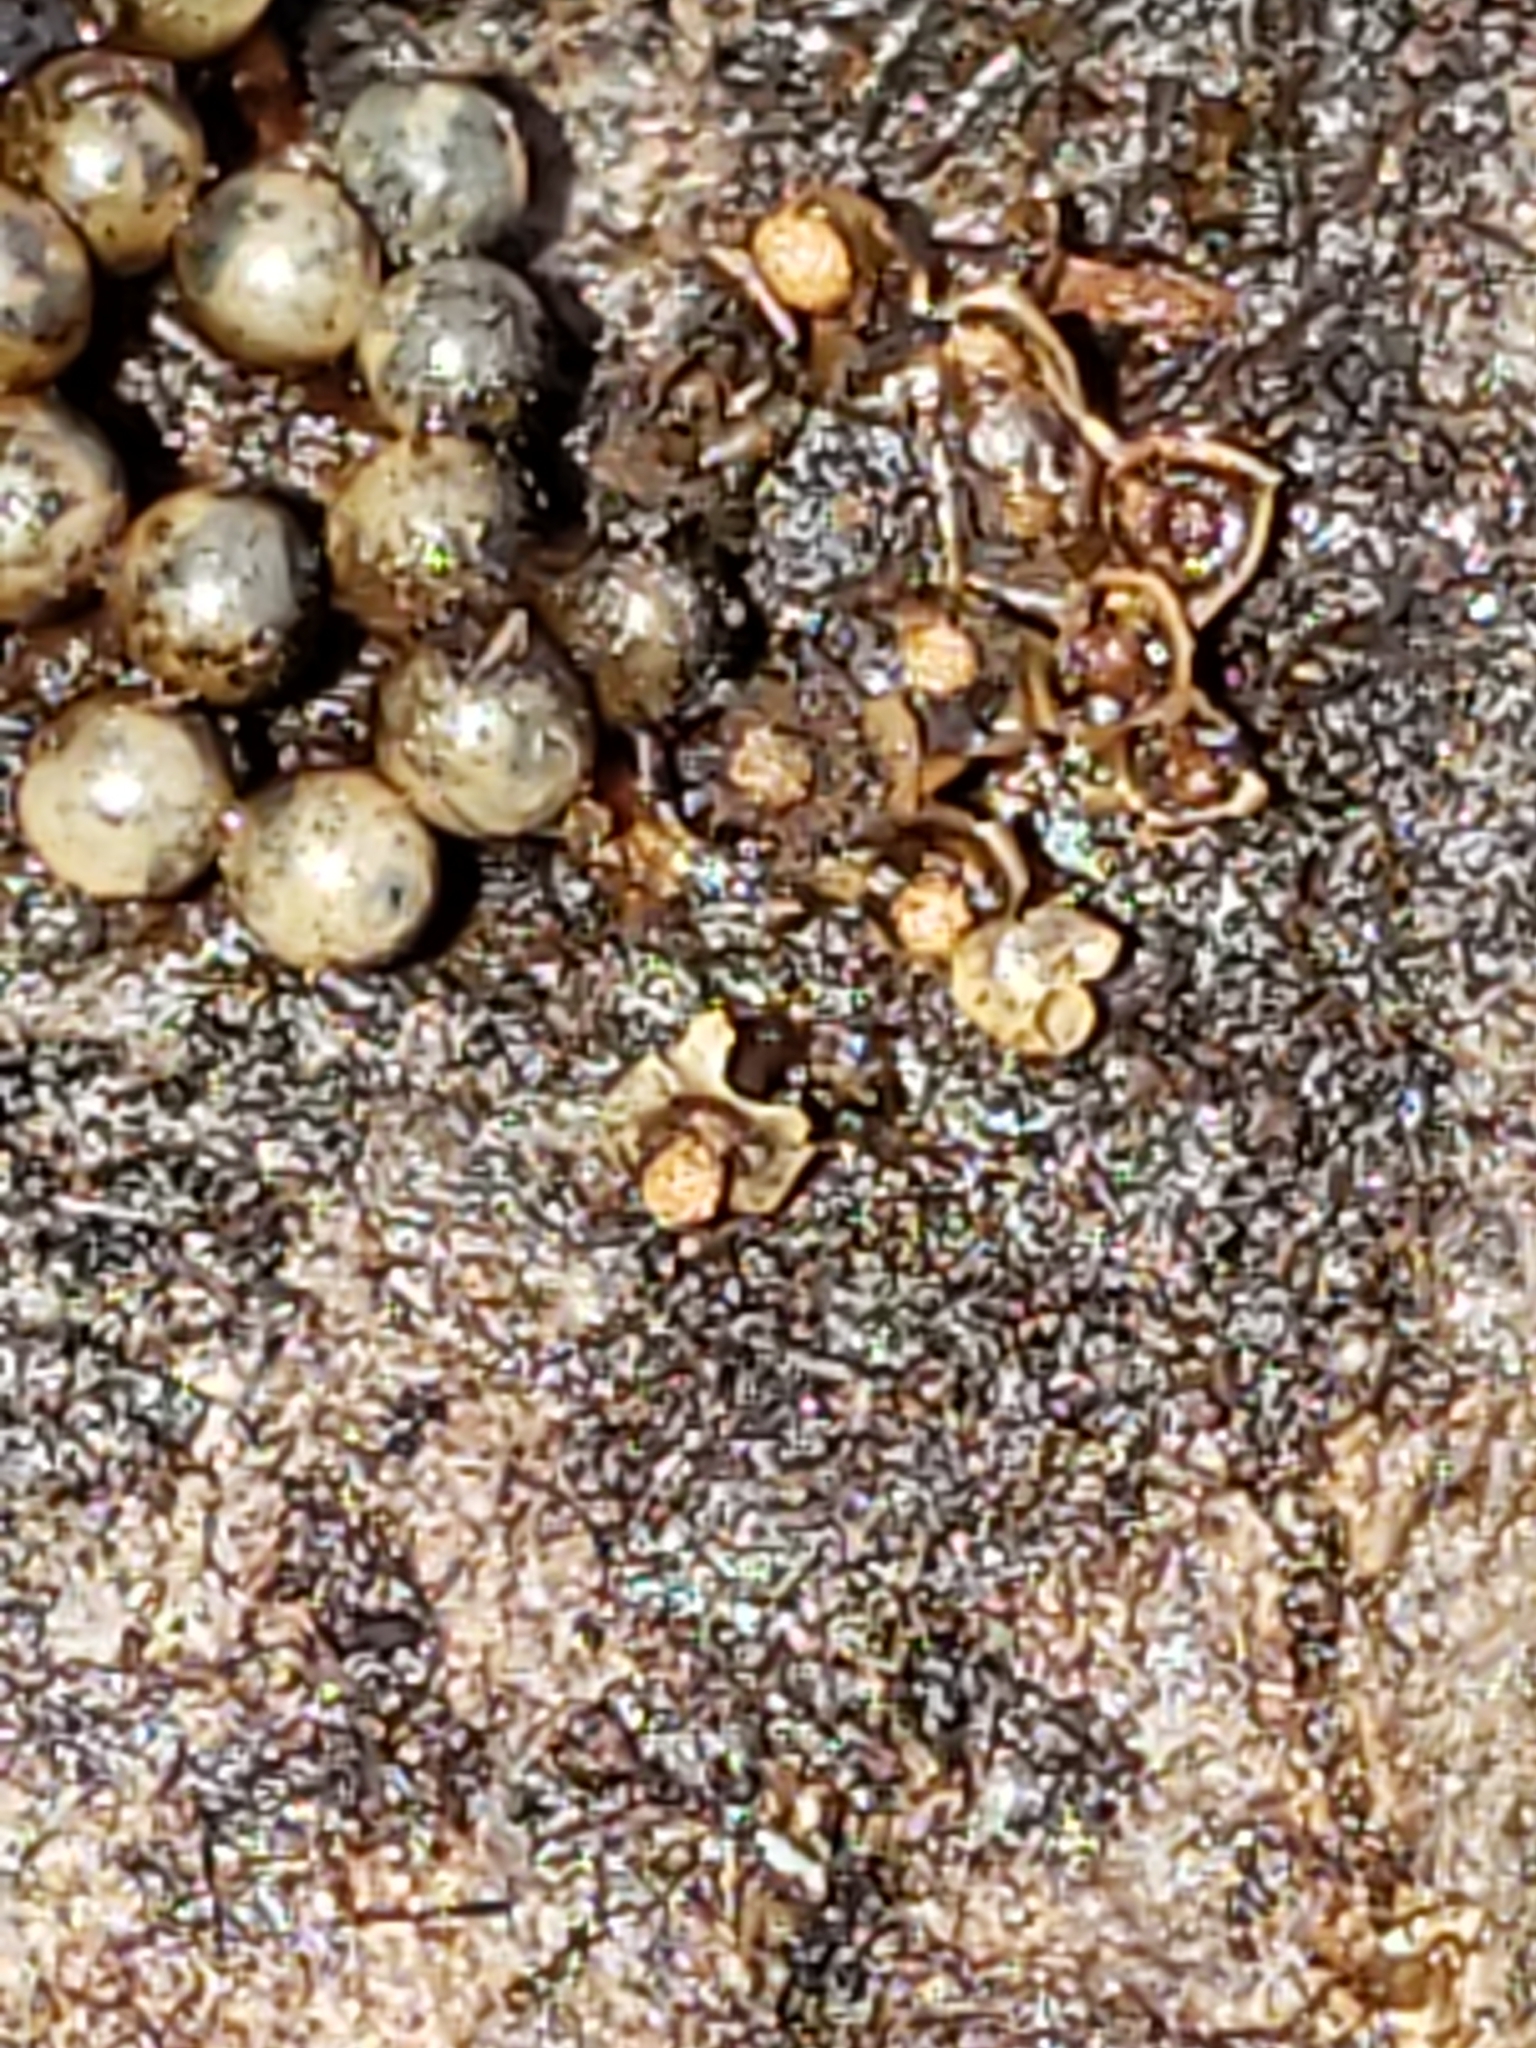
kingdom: Protozoa
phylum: Mycetozoa
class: Myxomycetes
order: Physarales
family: Didymiaceae
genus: Diderma
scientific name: Diderma floriforme
